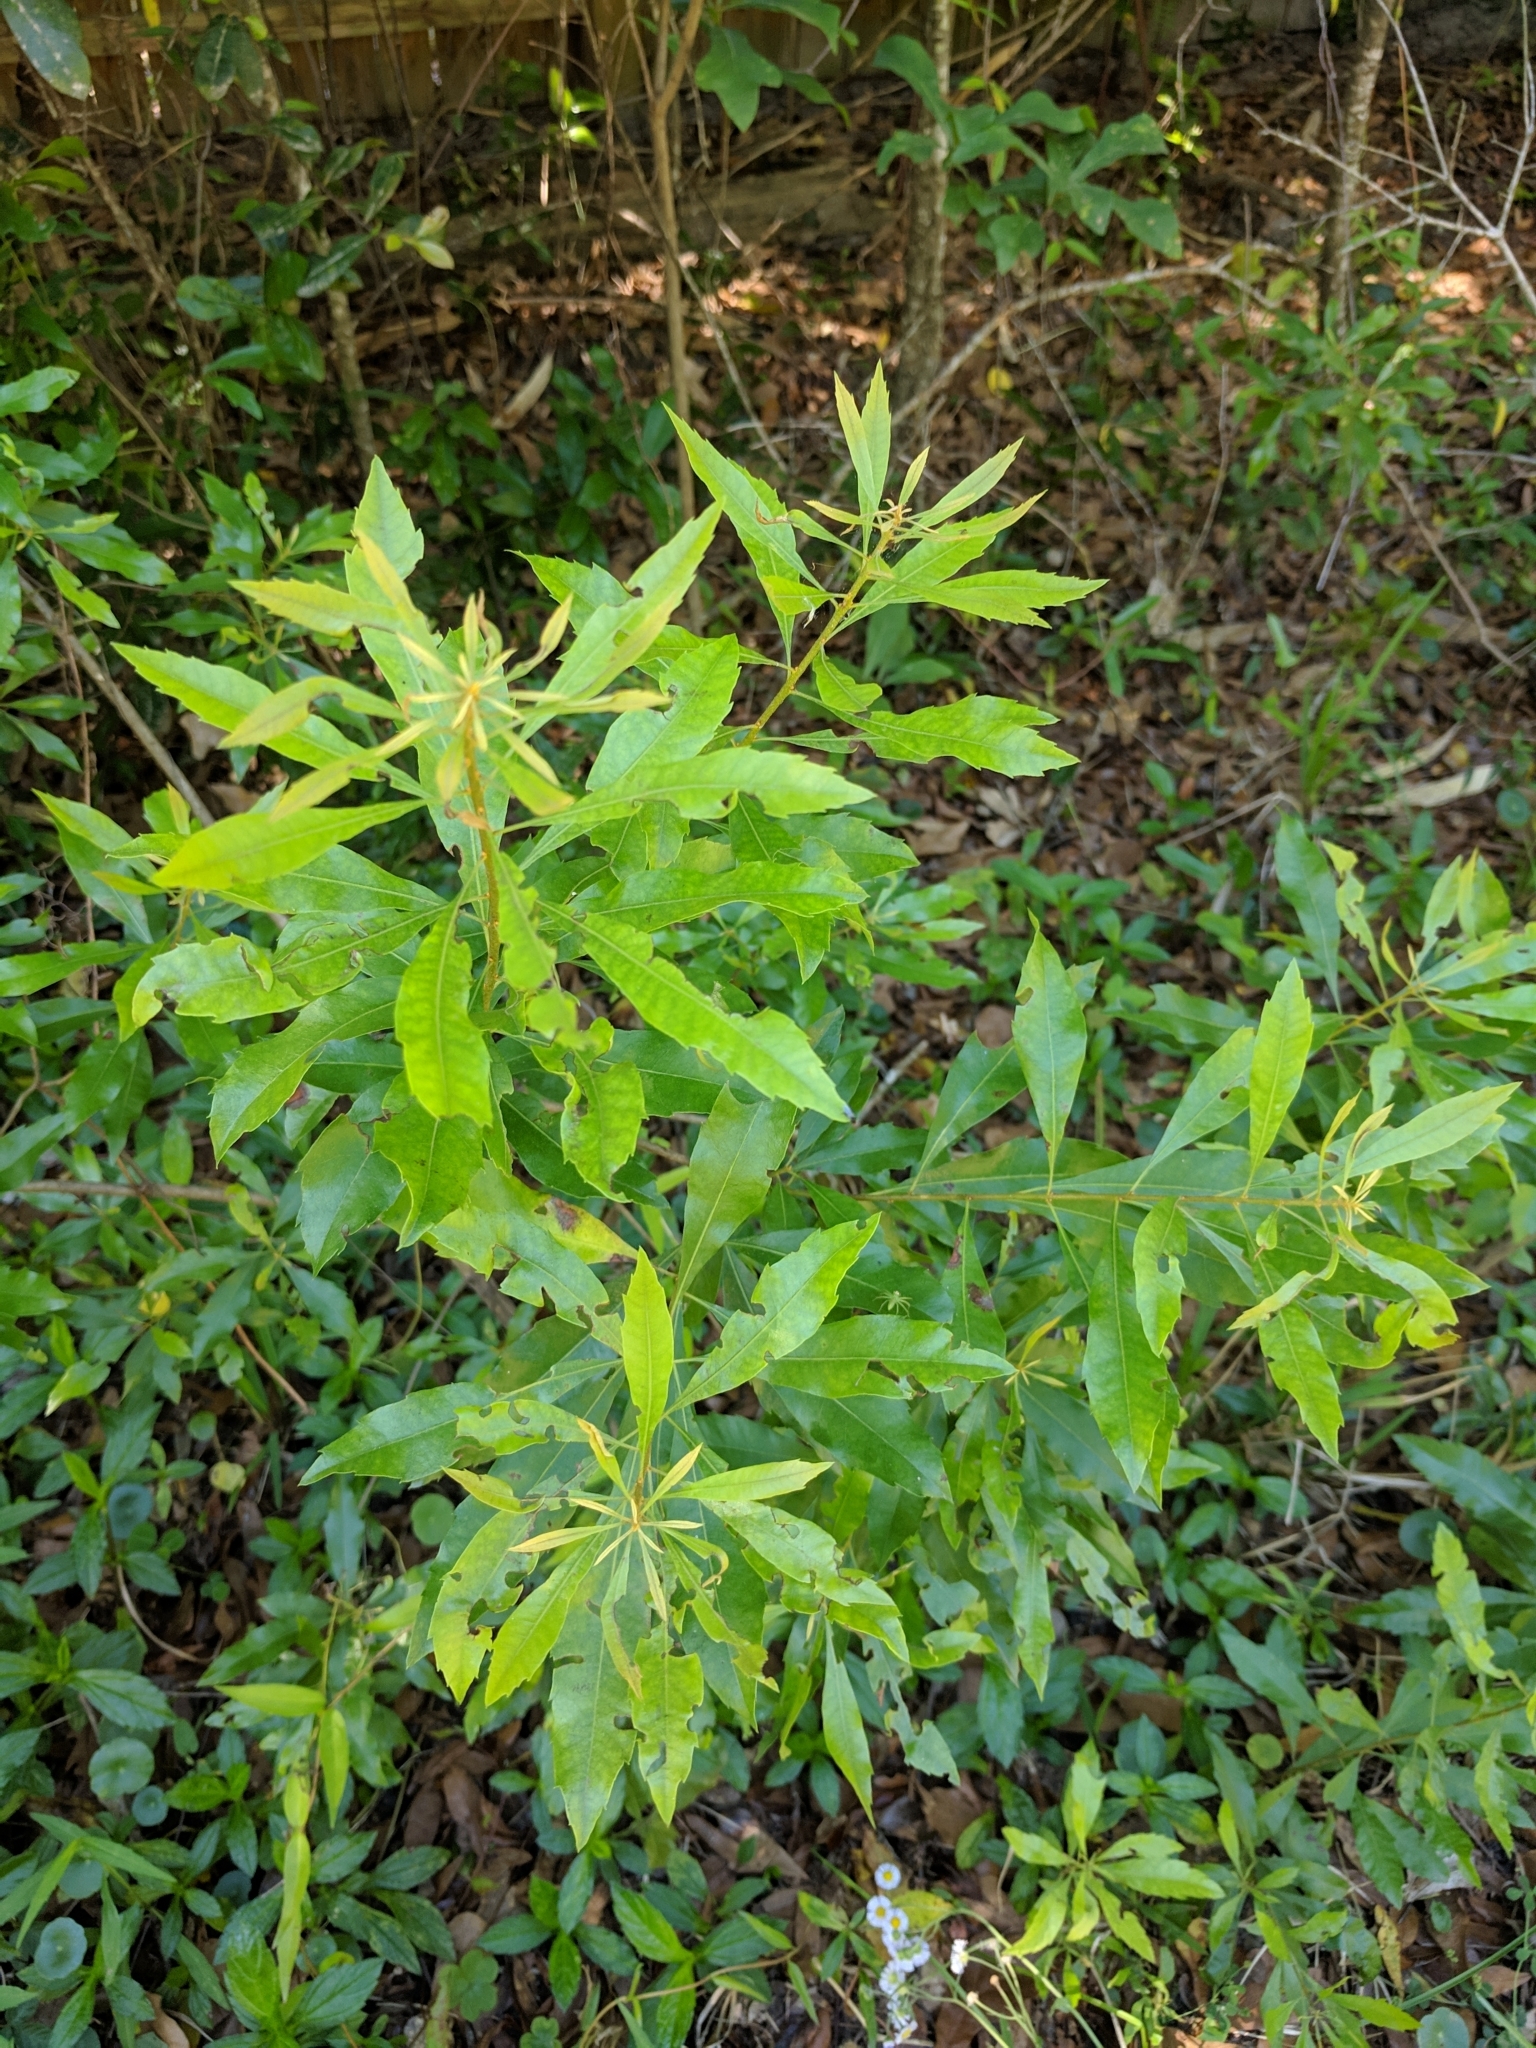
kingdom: Plantae
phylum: Tracheophyta
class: Magnoliopsida
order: Fagales
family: Myricaceae
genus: Morella
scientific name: Morella cerifera
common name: Wax myrtle
